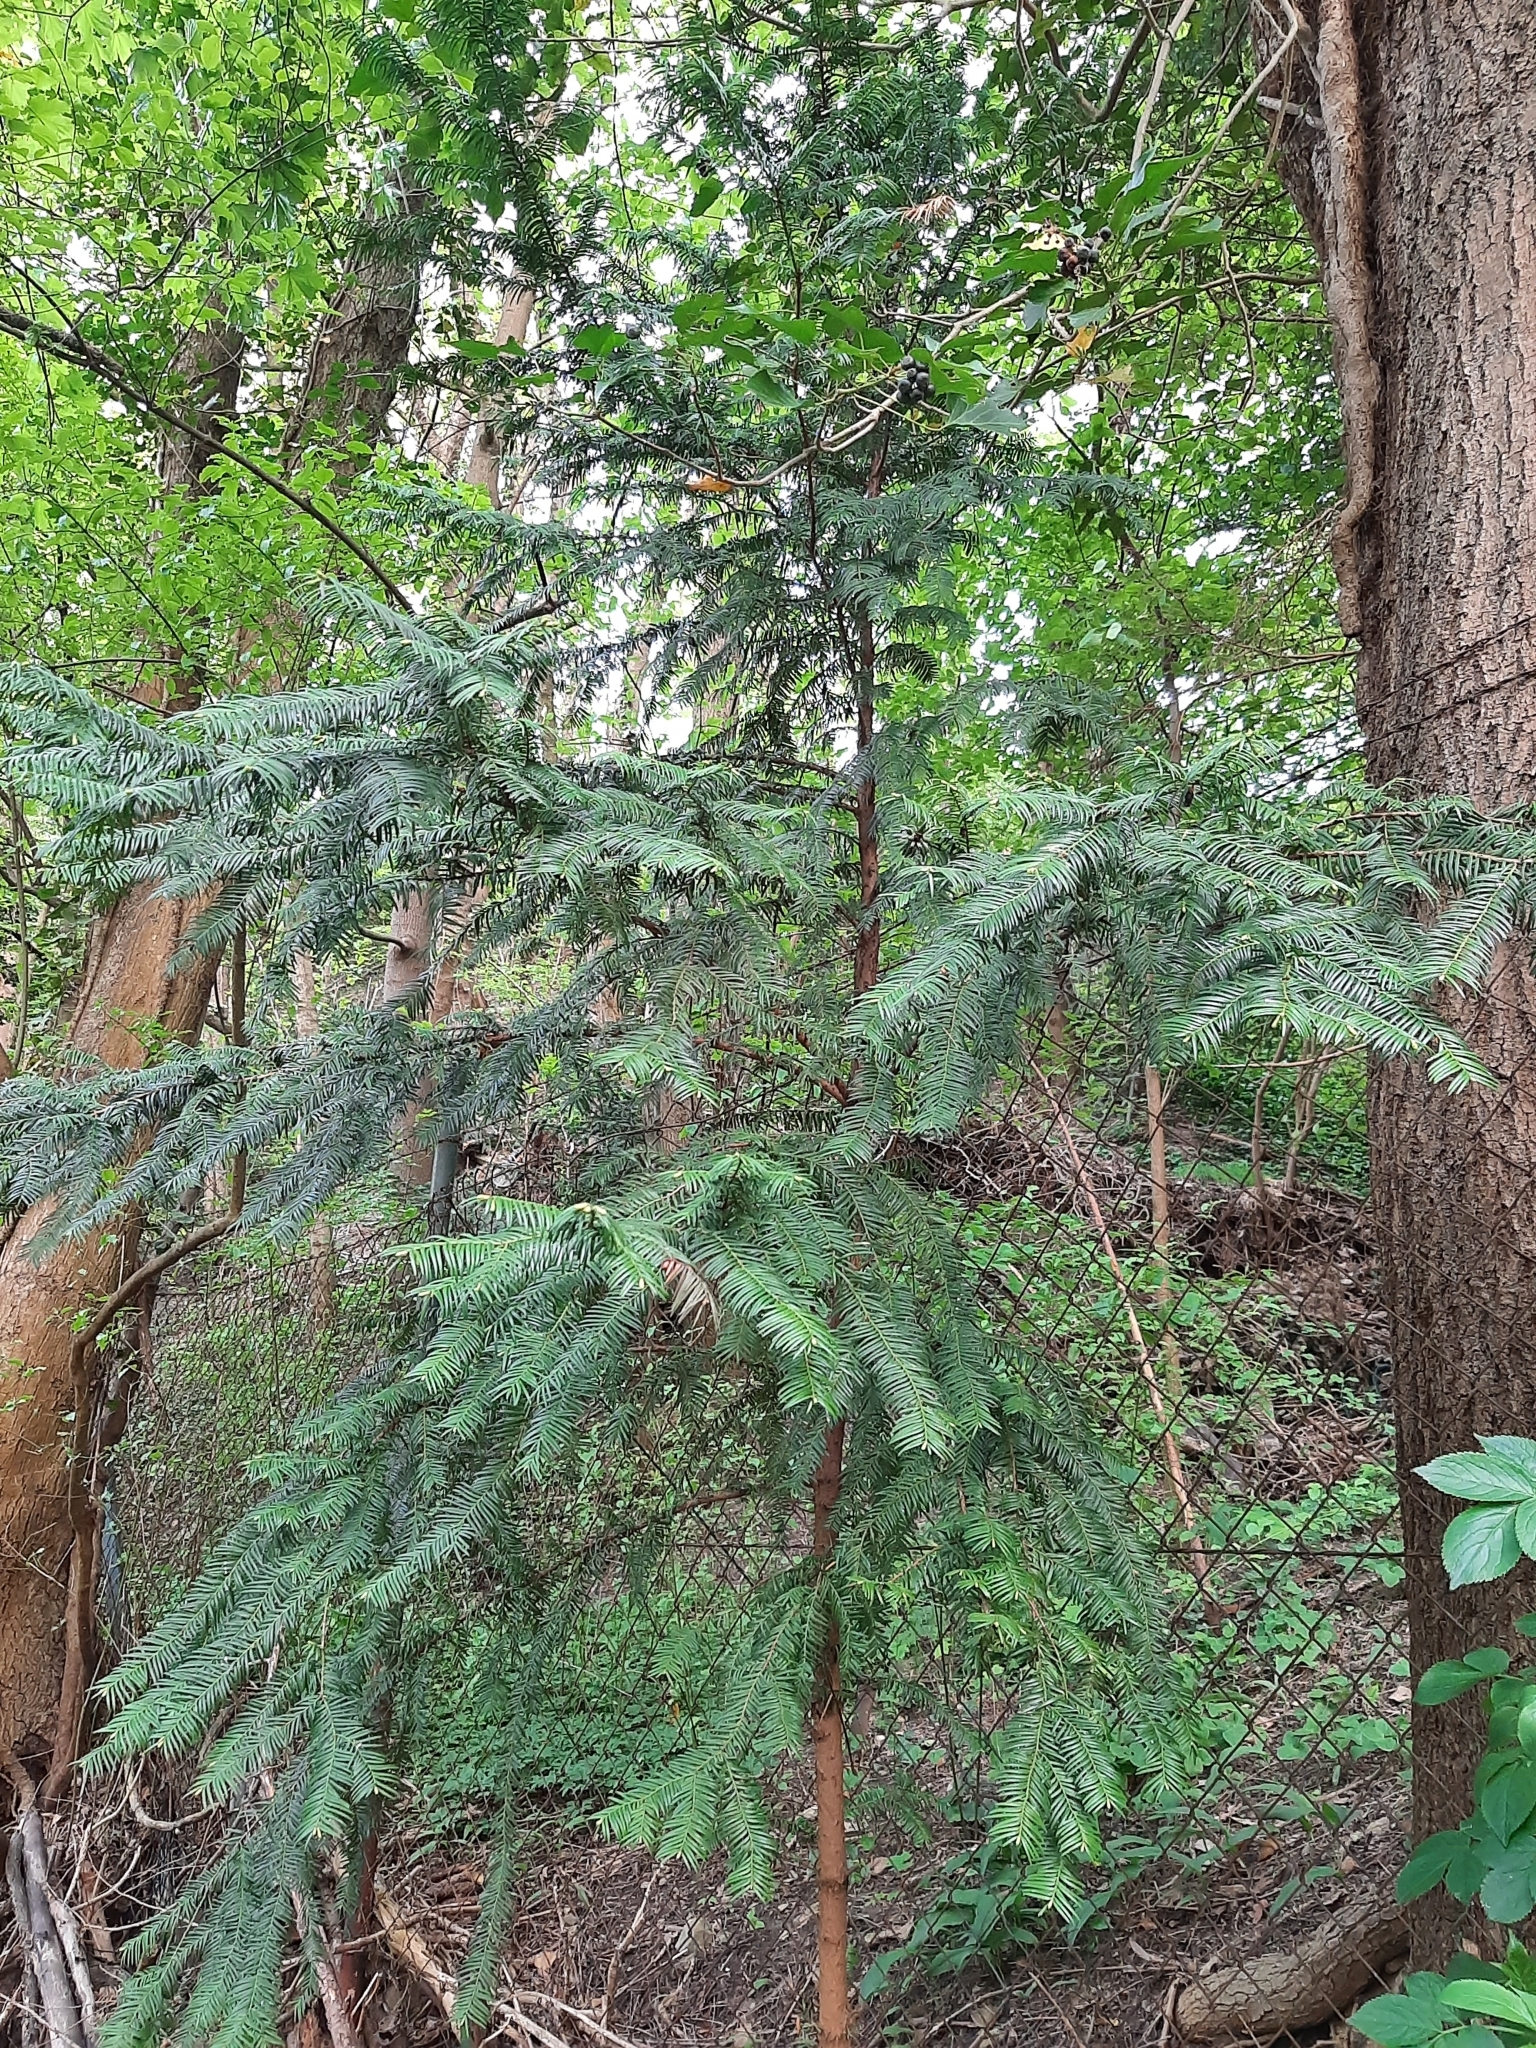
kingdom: Plantae
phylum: Tracheophyta
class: Pinopsida
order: Pinales
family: Taxaceae
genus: Taxus
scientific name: Taxus baccata
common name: Yew
